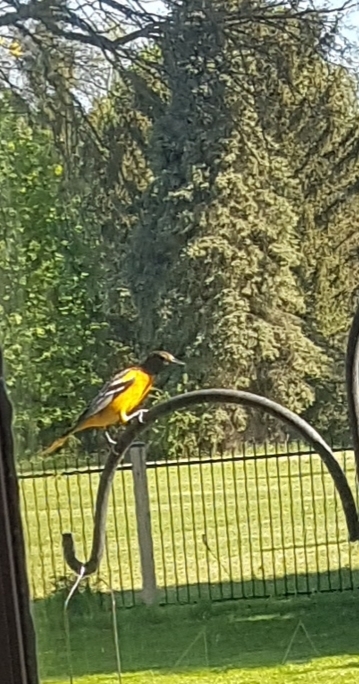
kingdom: Animalia
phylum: Chordata
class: Aves
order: Passeriformes
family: Icteridae
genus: Icterus
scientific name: Icterus galbula
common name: Baltimore oriole
